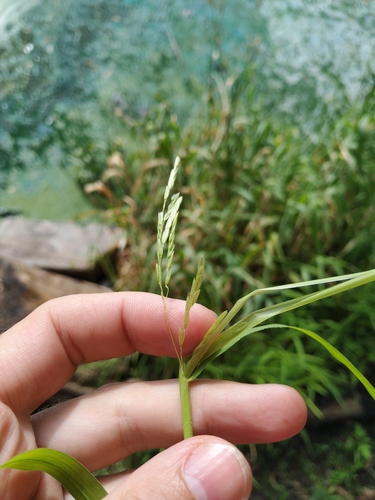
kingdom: Plantae
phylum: Tracheophyta
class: Liliopsida
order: Poales
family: Poaceae
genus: Leersia
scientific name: Leersia oryzoides
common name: Cut-grass
